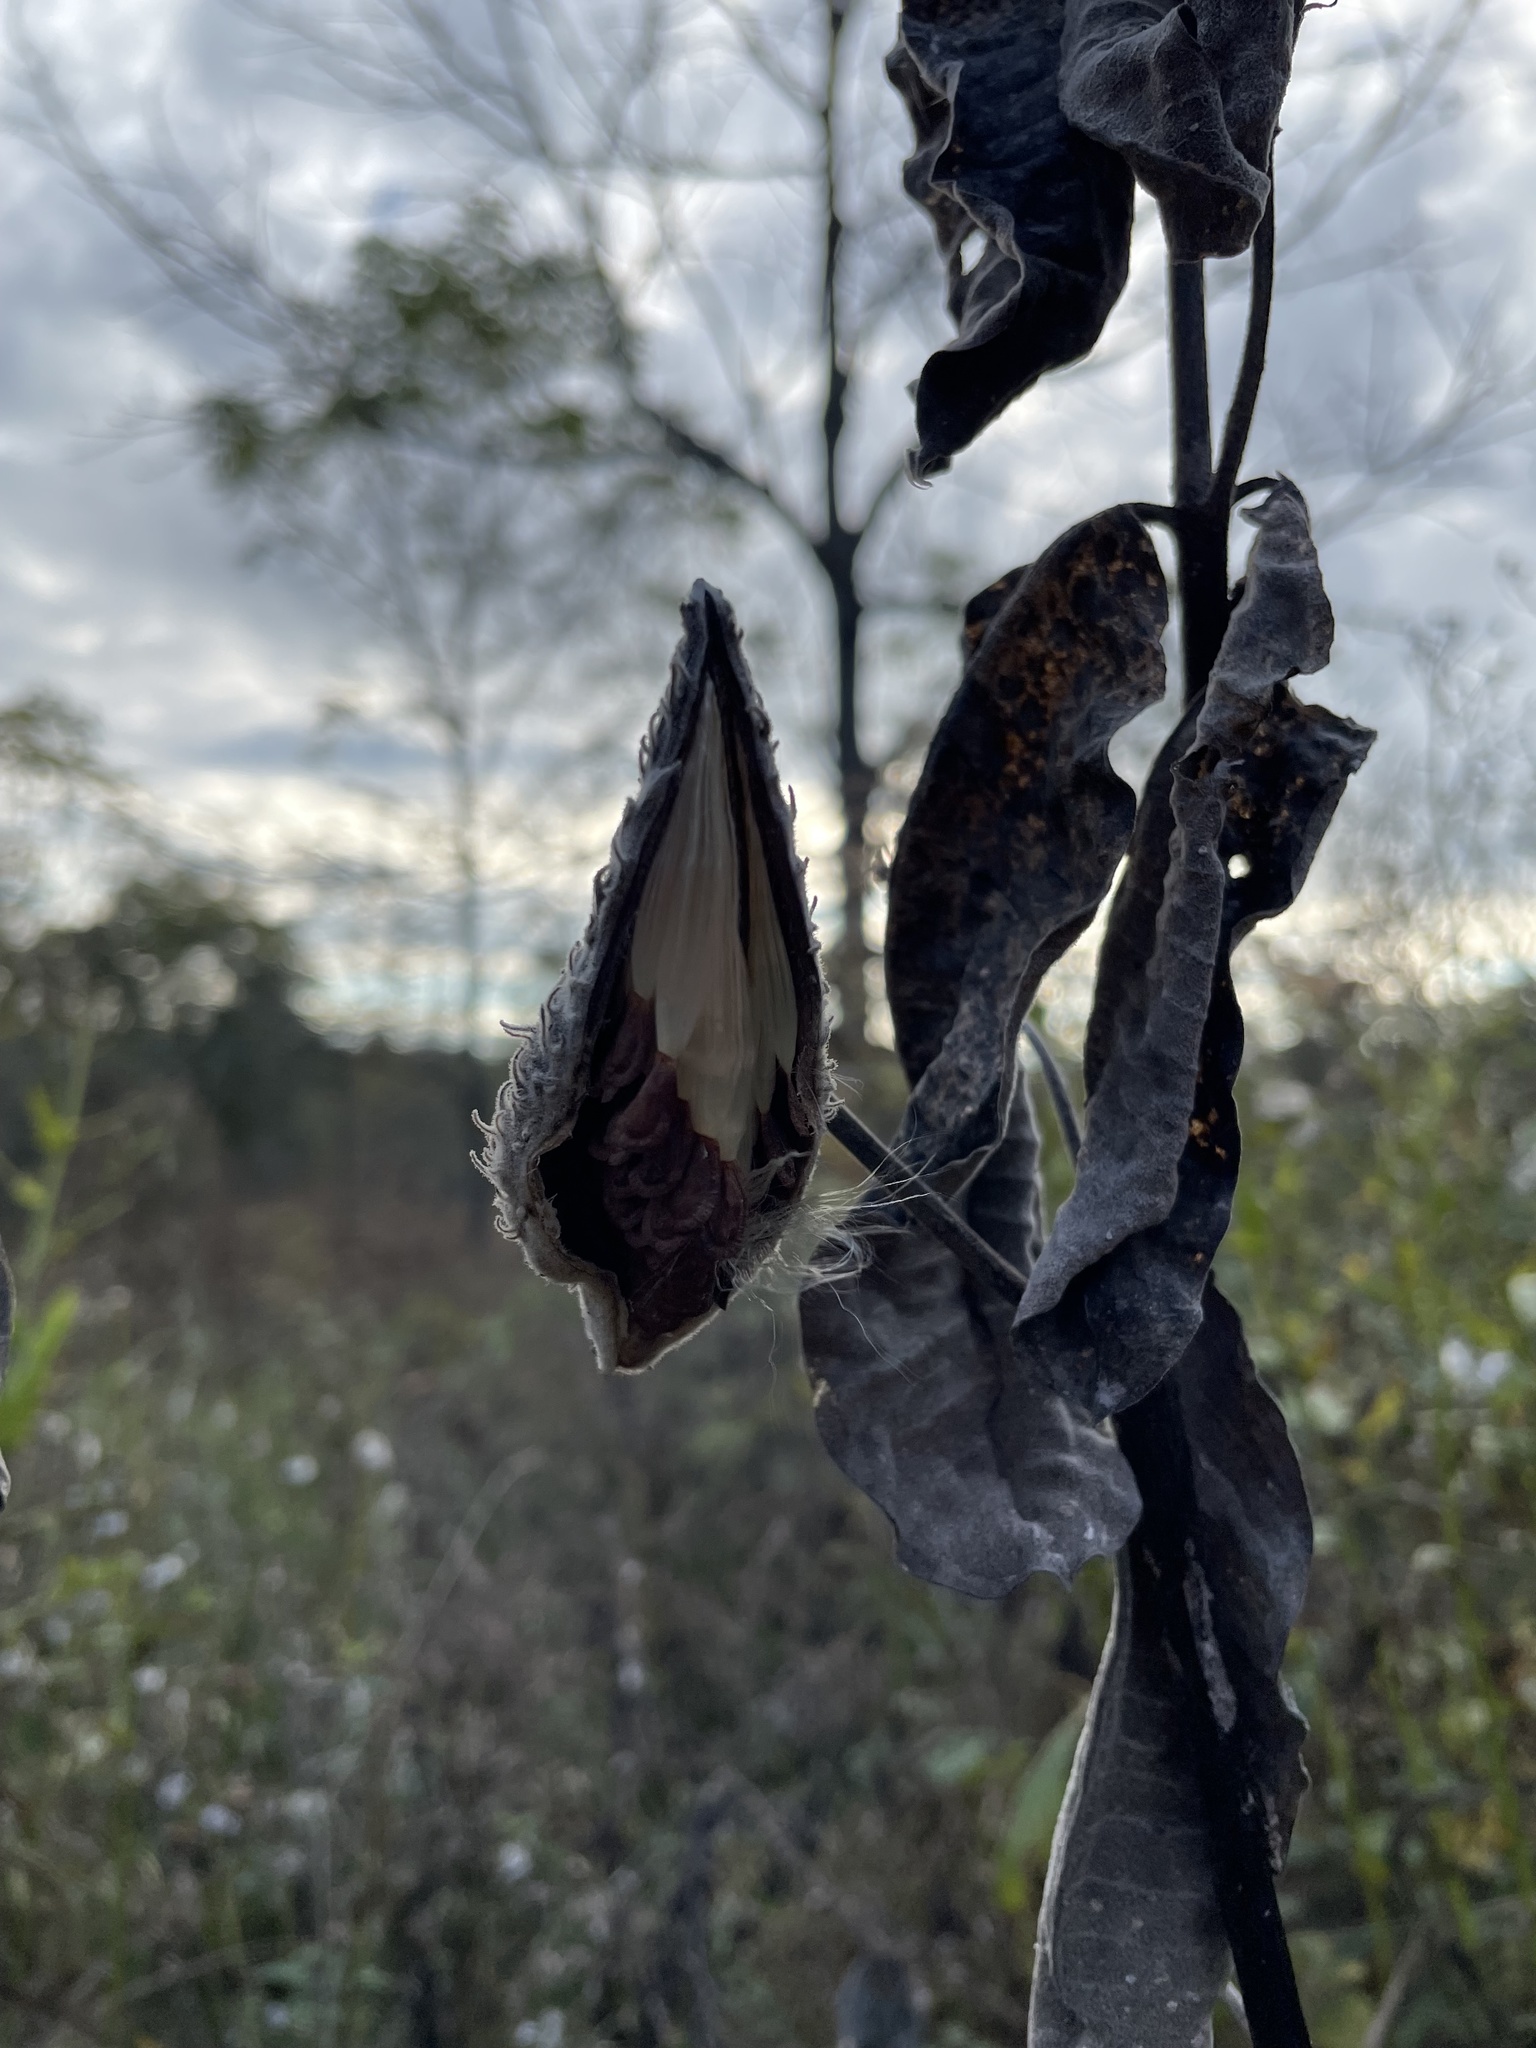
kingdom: Plantae
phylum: Tracheophyta
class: Magnoliopsida
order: Gentianales
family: Apocynaceae
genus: Asclepias
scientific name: Asclepias syriaca
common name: Common milkweed
